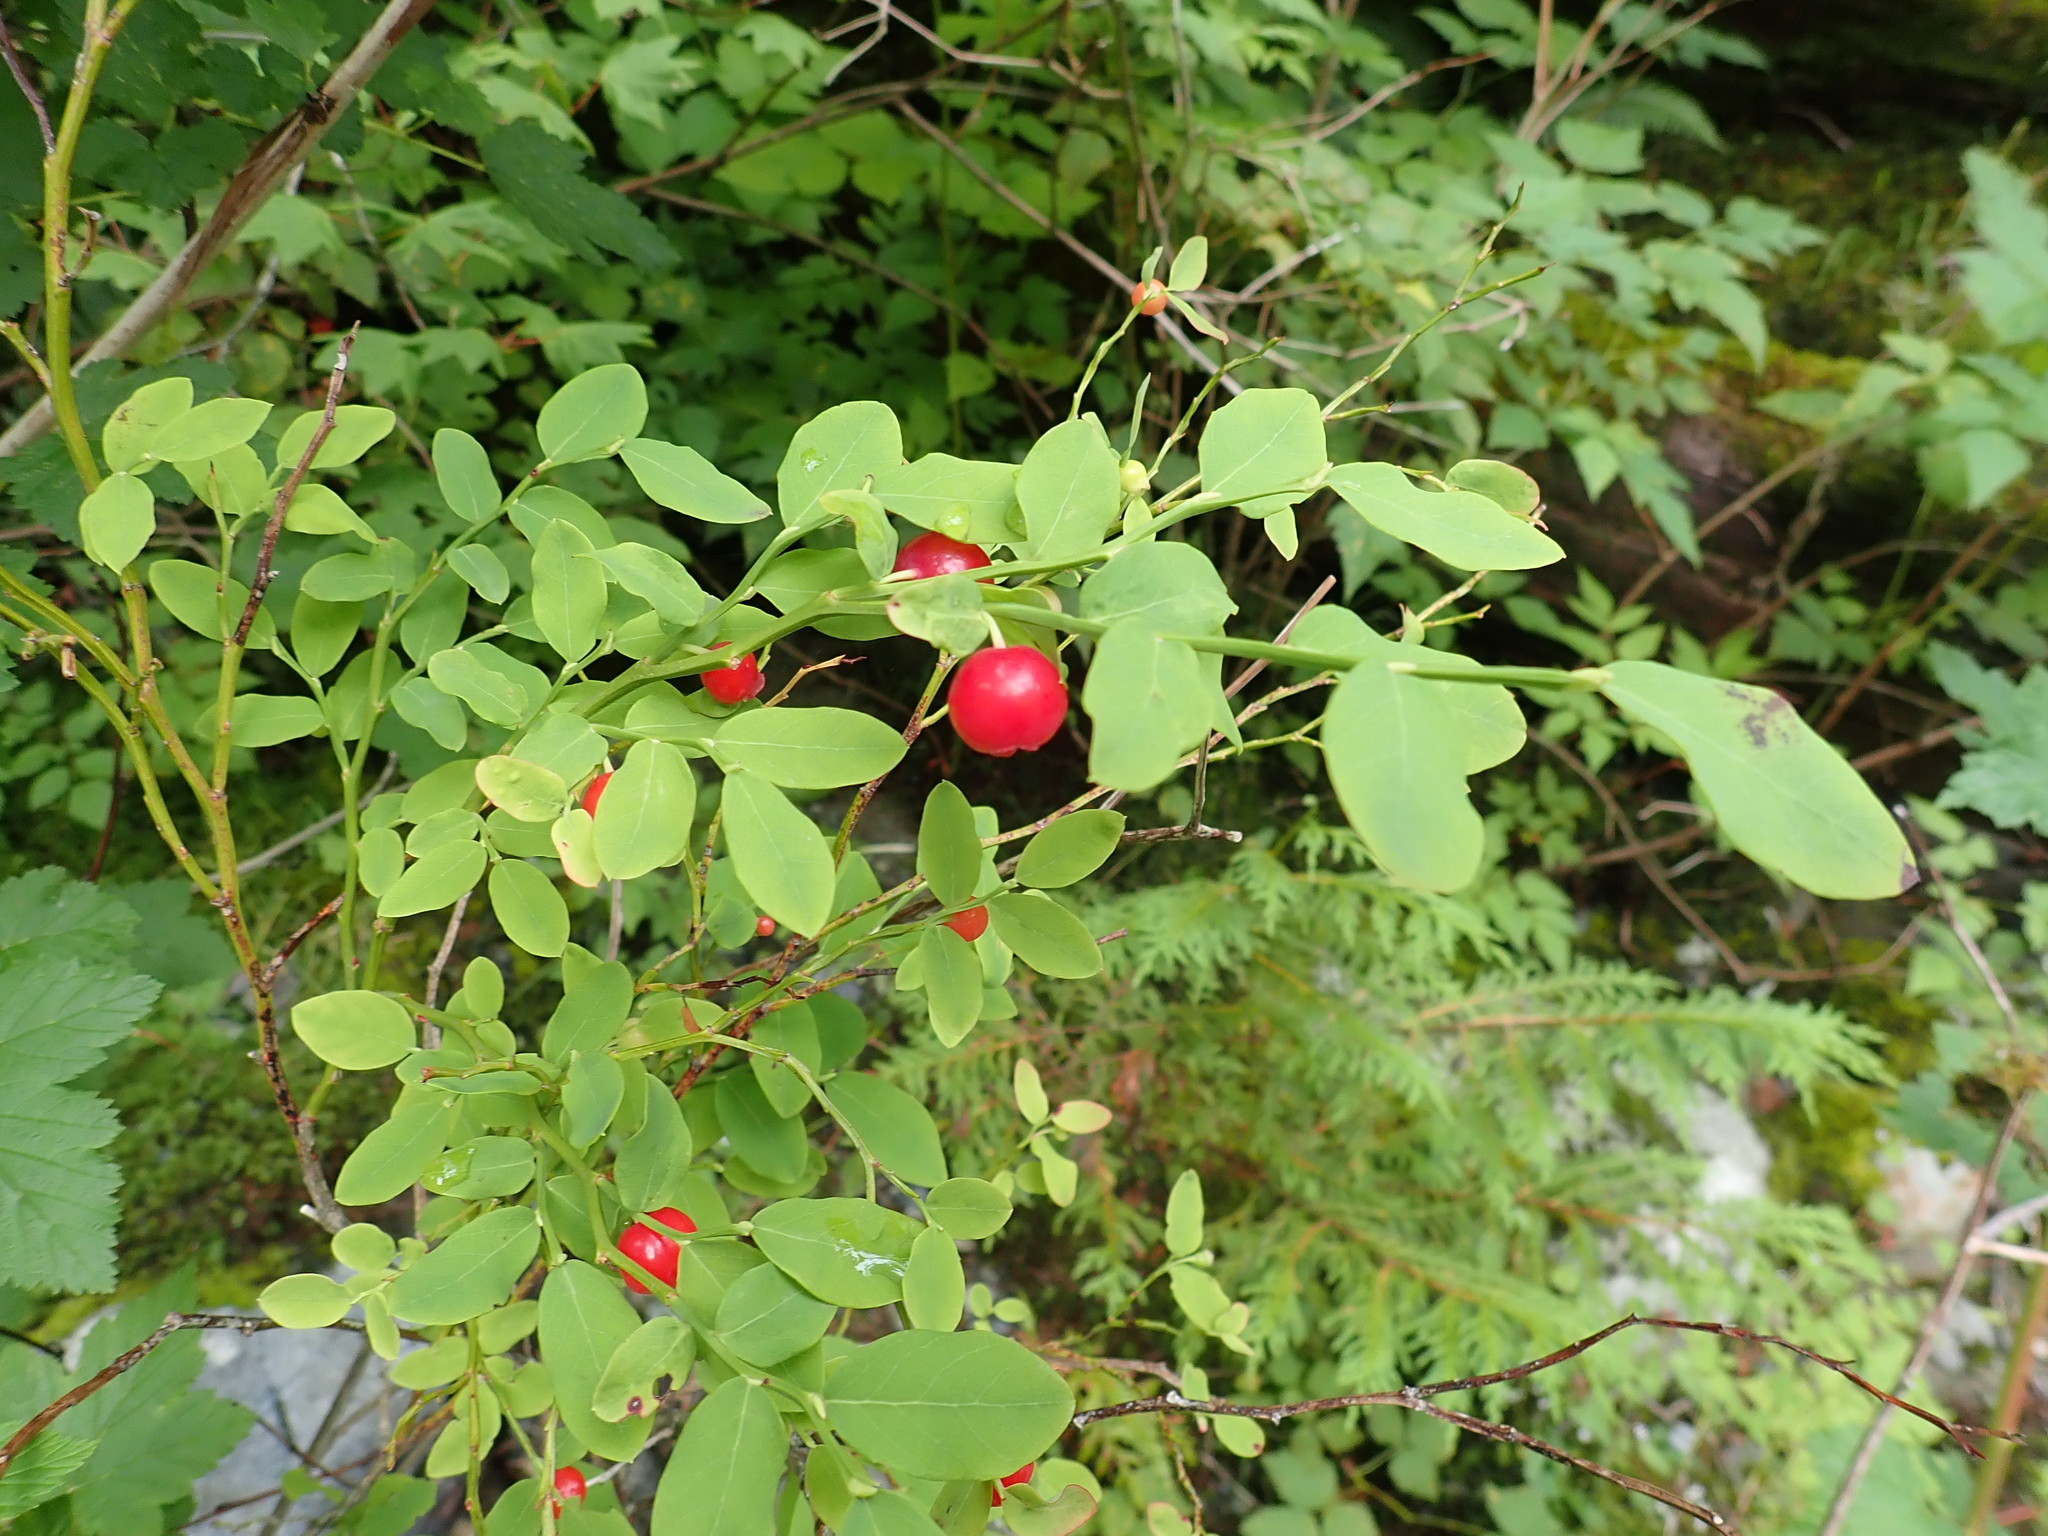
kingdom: Plantae
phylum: Tracheophyta
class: Magnoliopsida
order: Ericales
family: Ericaceae
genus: Vaccinium
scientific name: Vaccinium parvifolium
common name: Red-huckleberry
